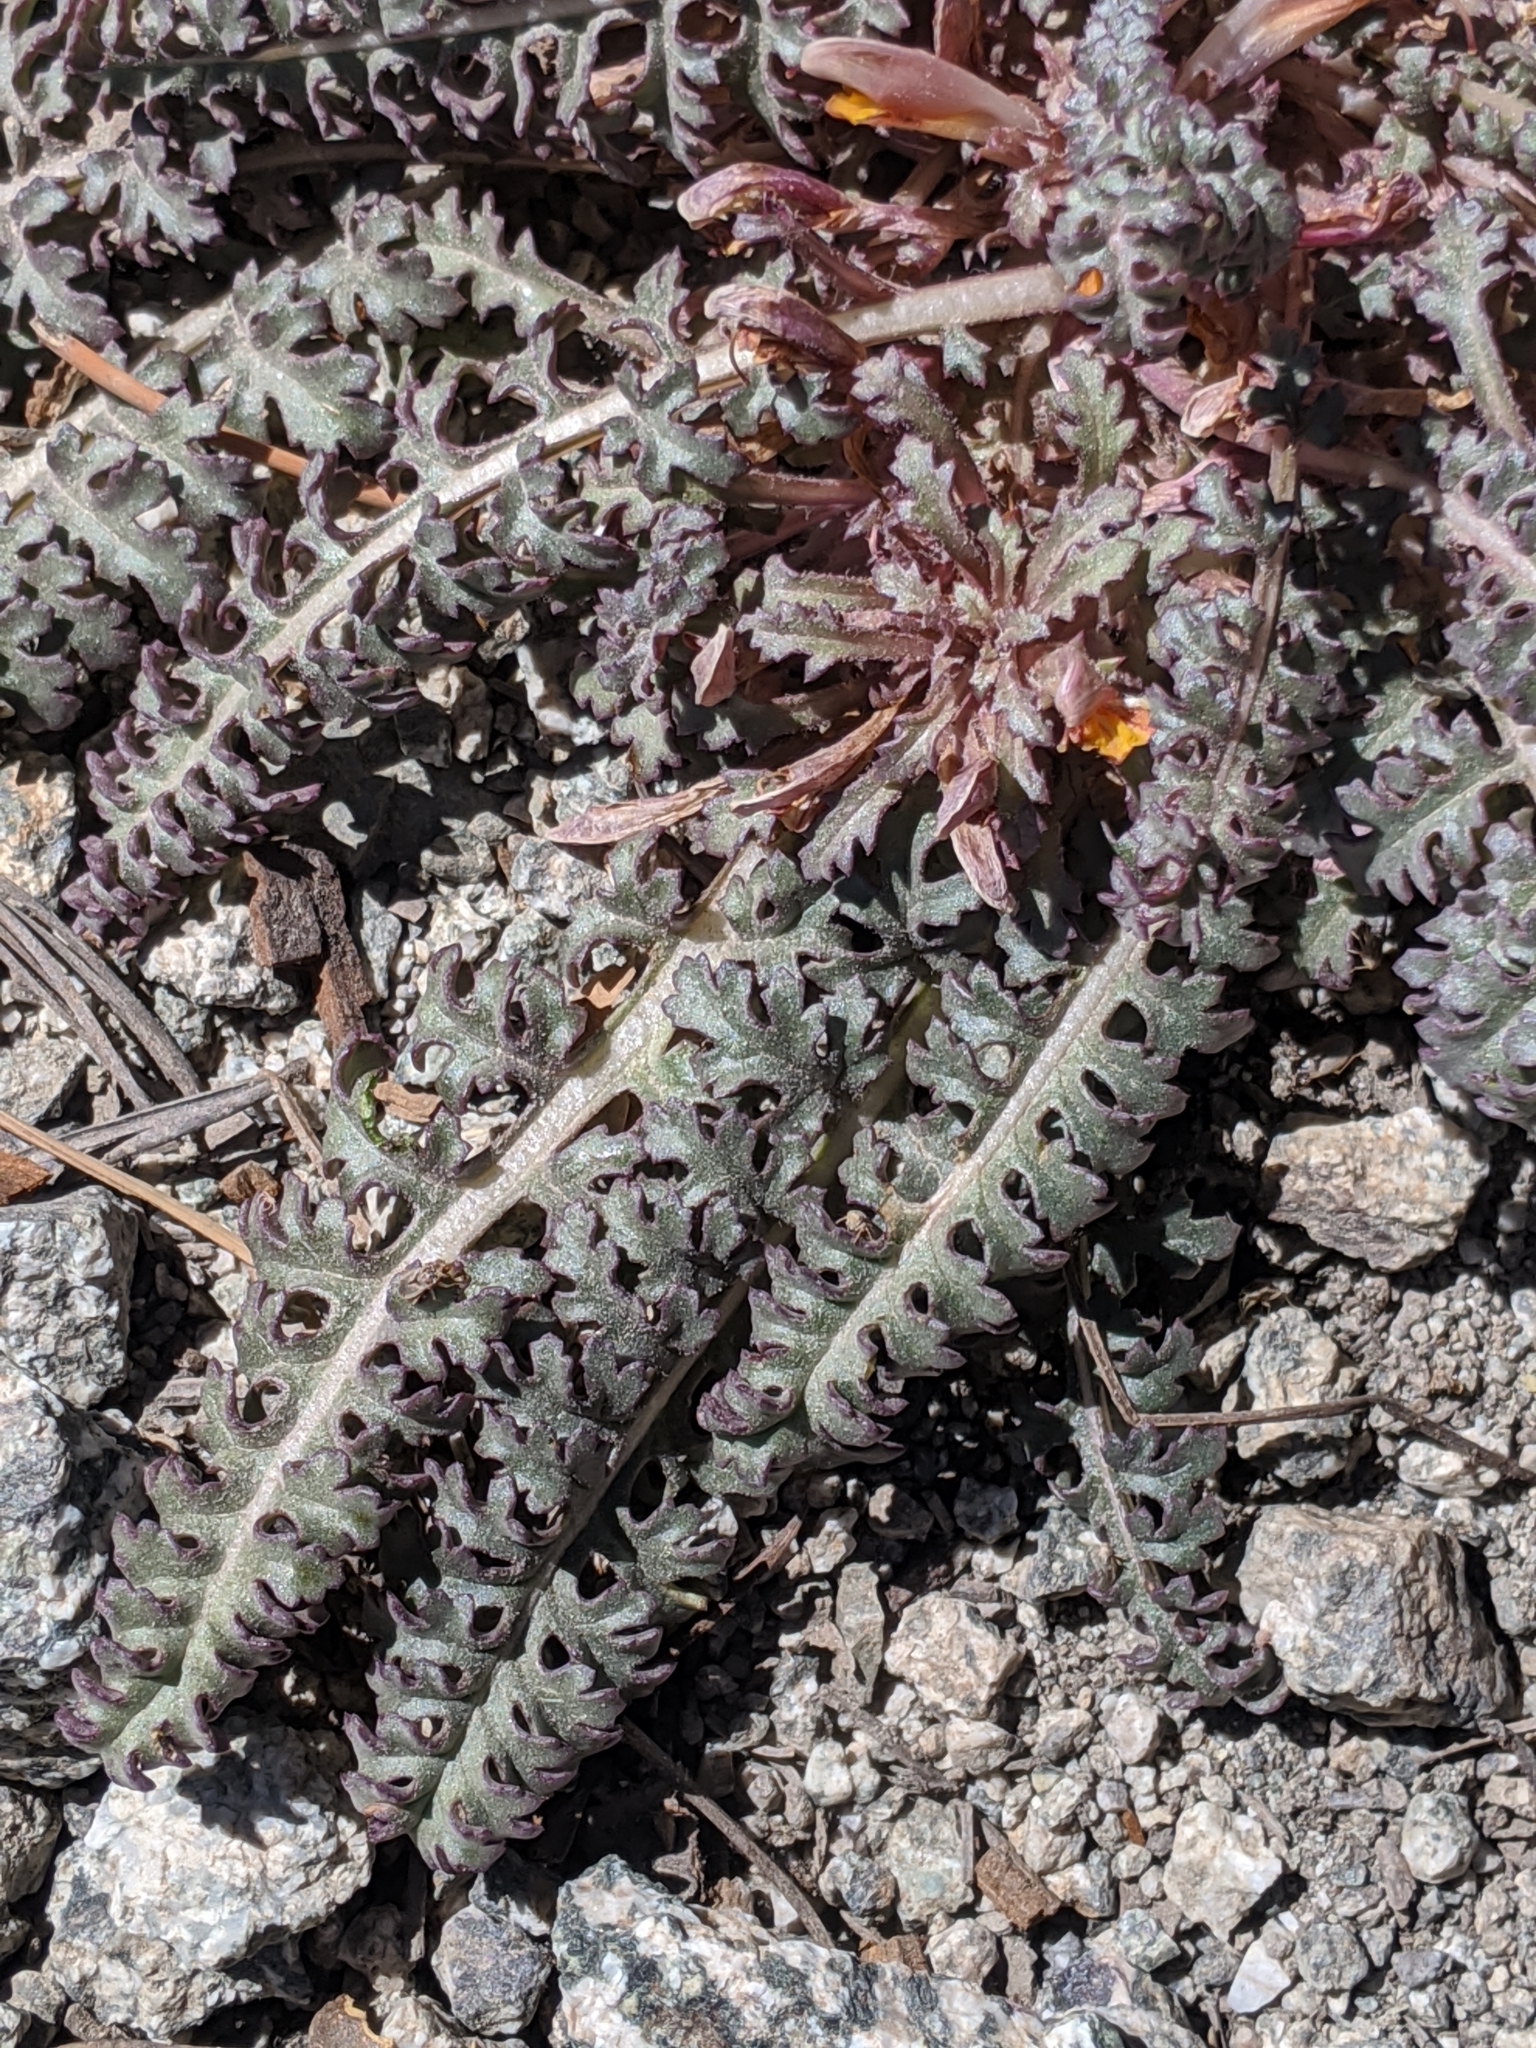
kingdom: Plantae
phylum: Tracheophyta
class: Magnoliopsida
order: Lamiales
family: Orobanchaceae
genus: Pedicularis
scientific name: Pedicularis semibarbata
